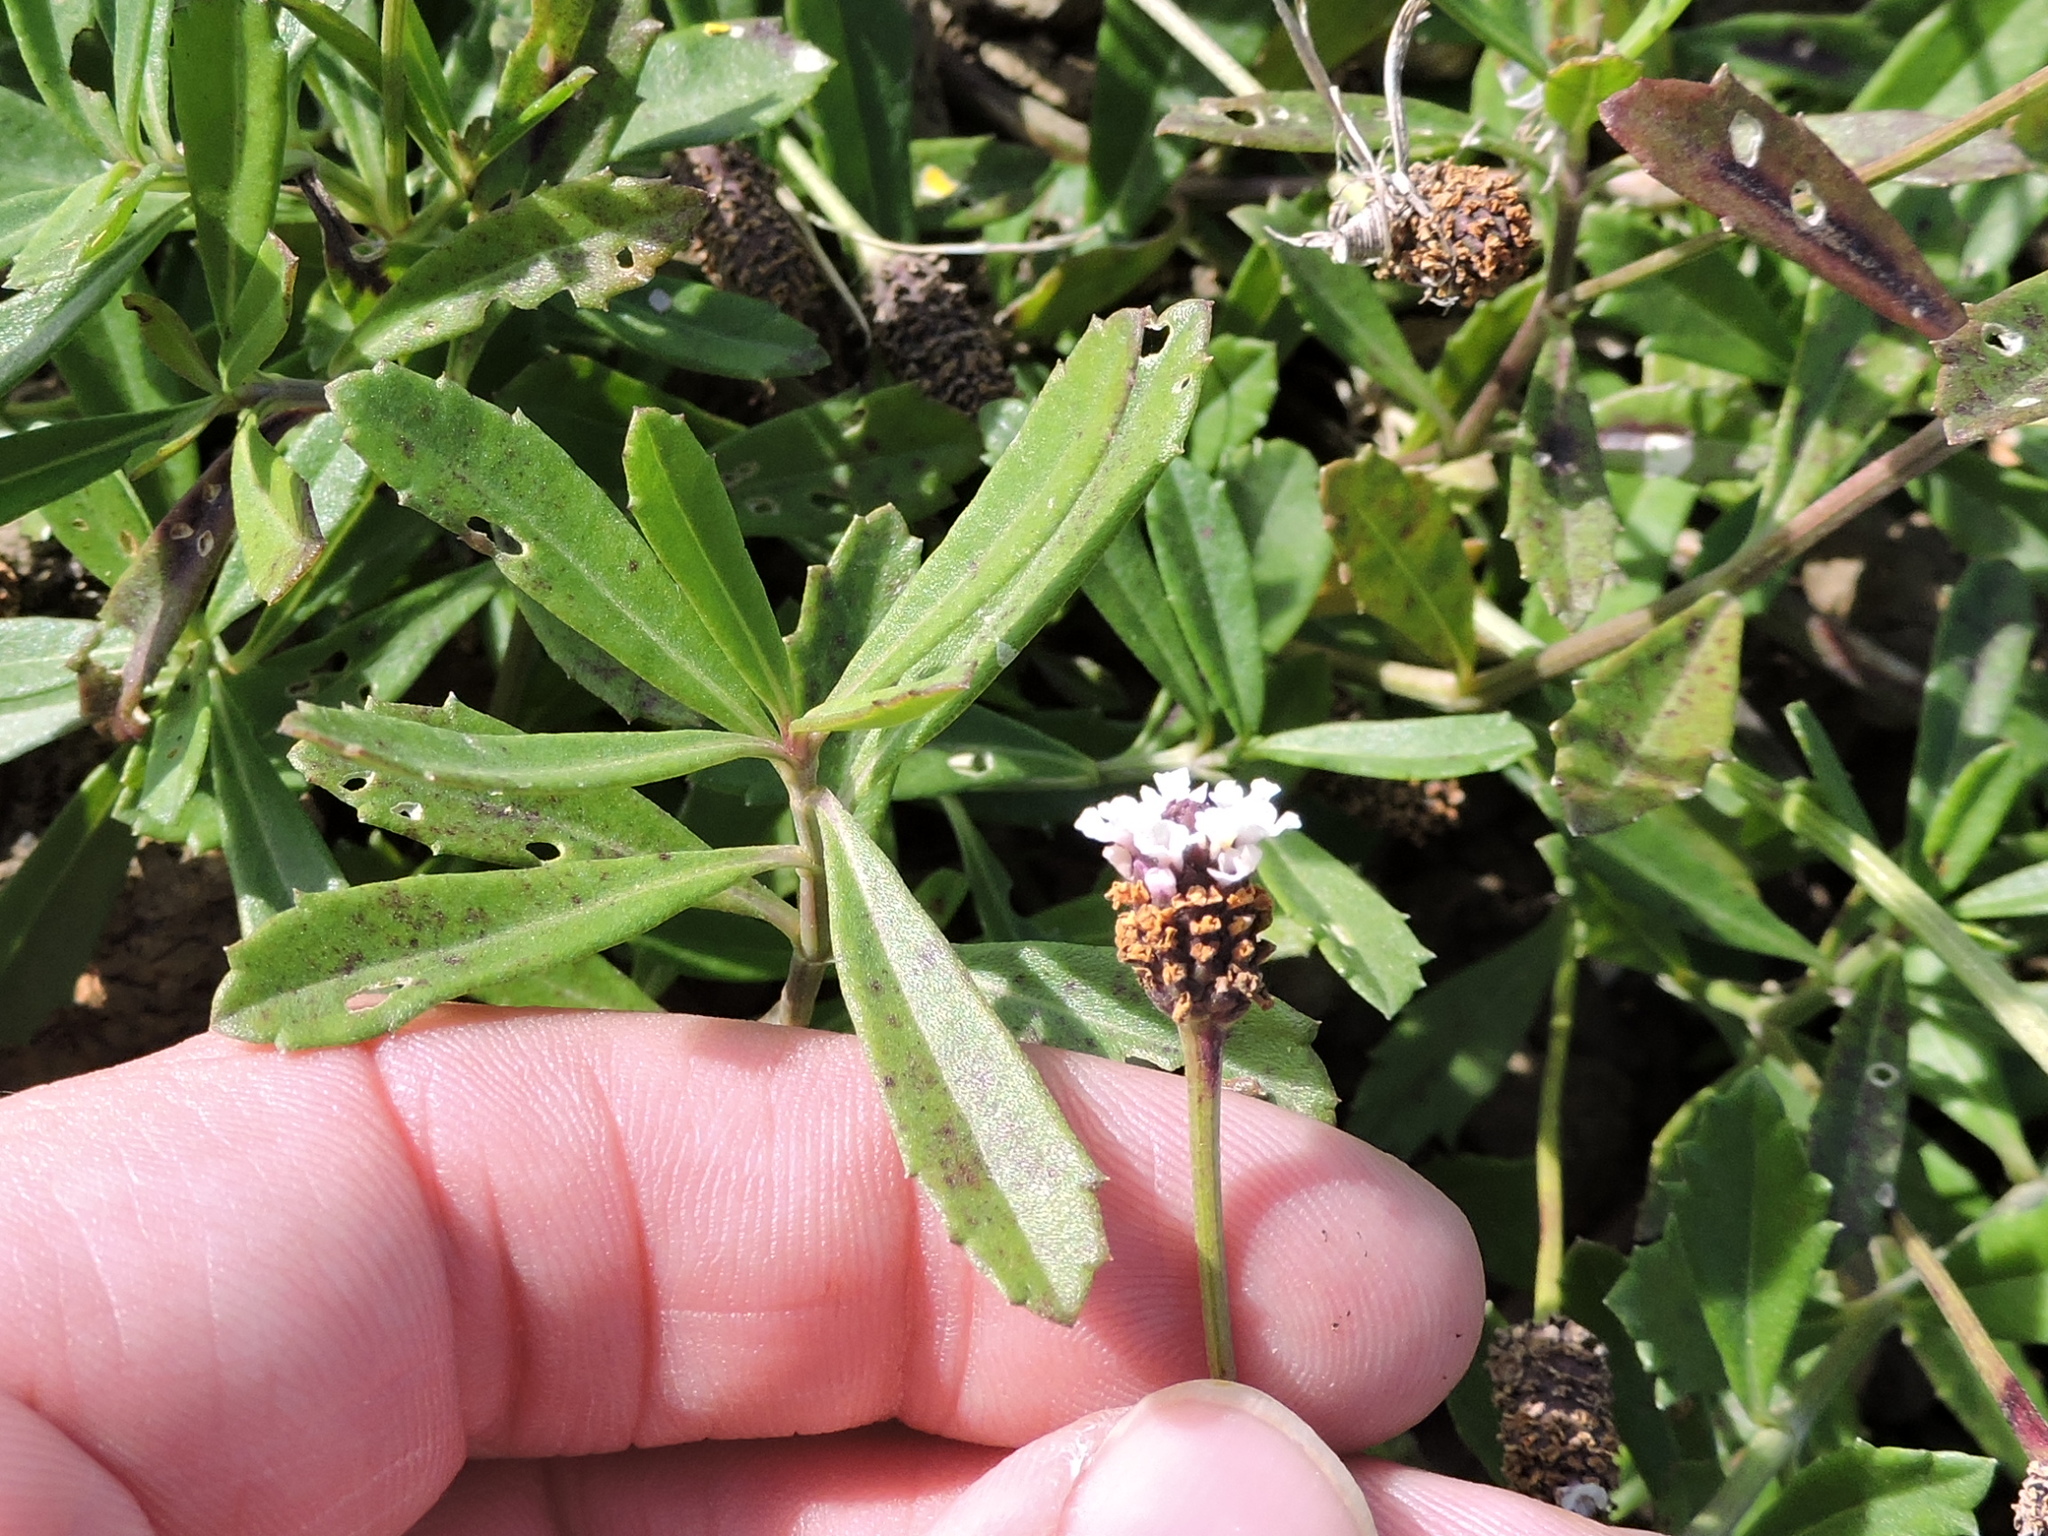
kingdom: Plantae
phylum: Tracheophyta
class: Magnoliopsida
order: Lamiales
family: Verbenaceae
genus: Phyla
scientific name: Phyla nodiflora
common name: Frogfruit
